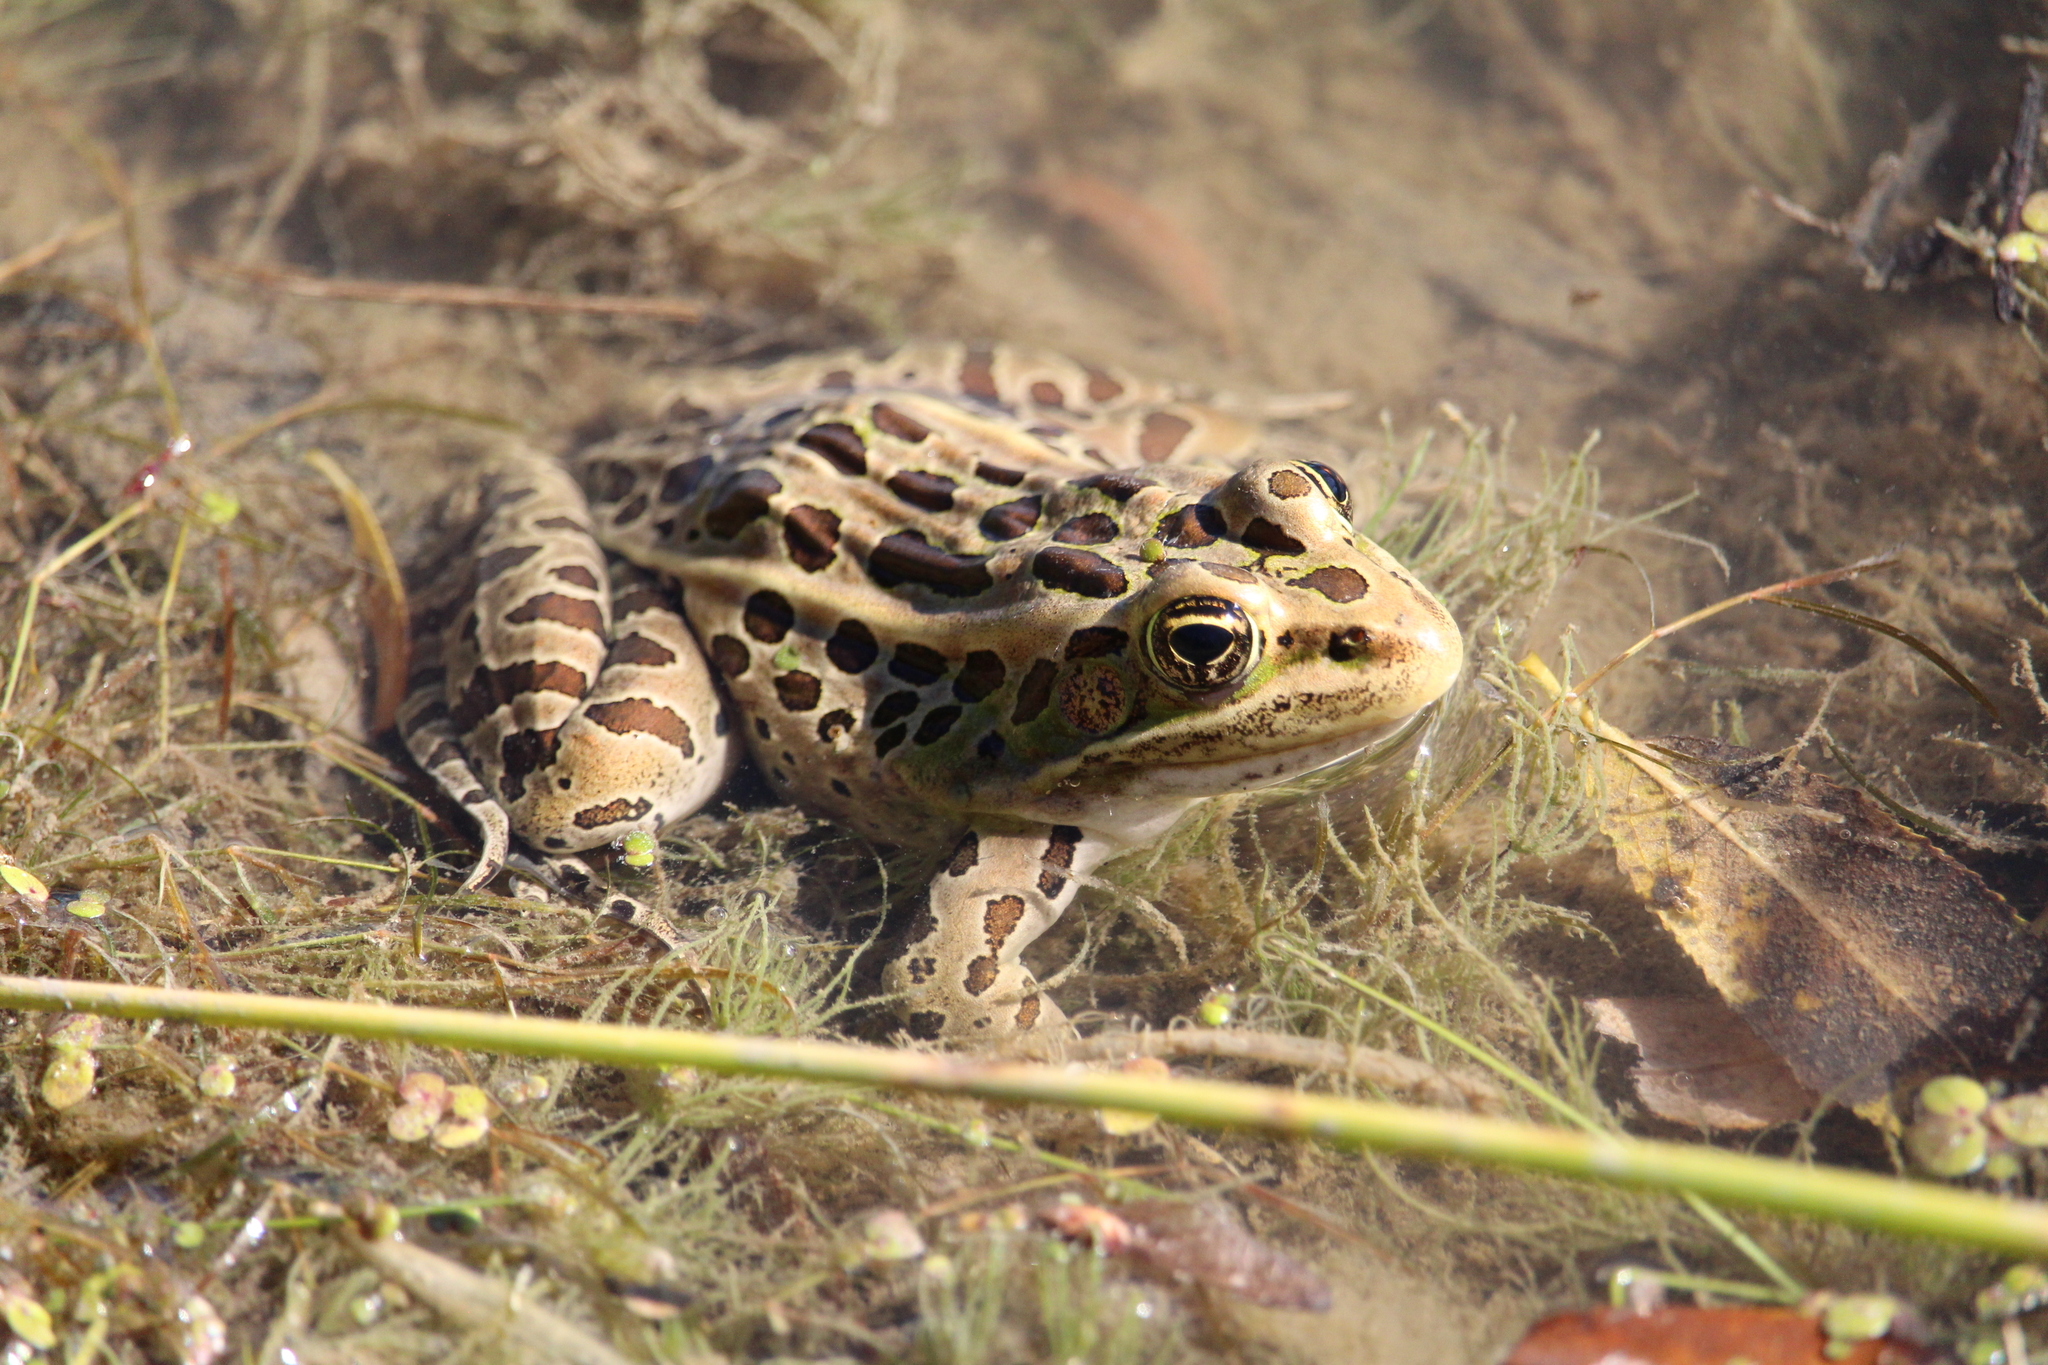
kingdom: Animalia
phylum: Chordata
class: Amphibia
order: Anura
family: Ranidae
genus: Lithobates
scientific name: Lithobates pipiens
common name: Northern leopard frog
